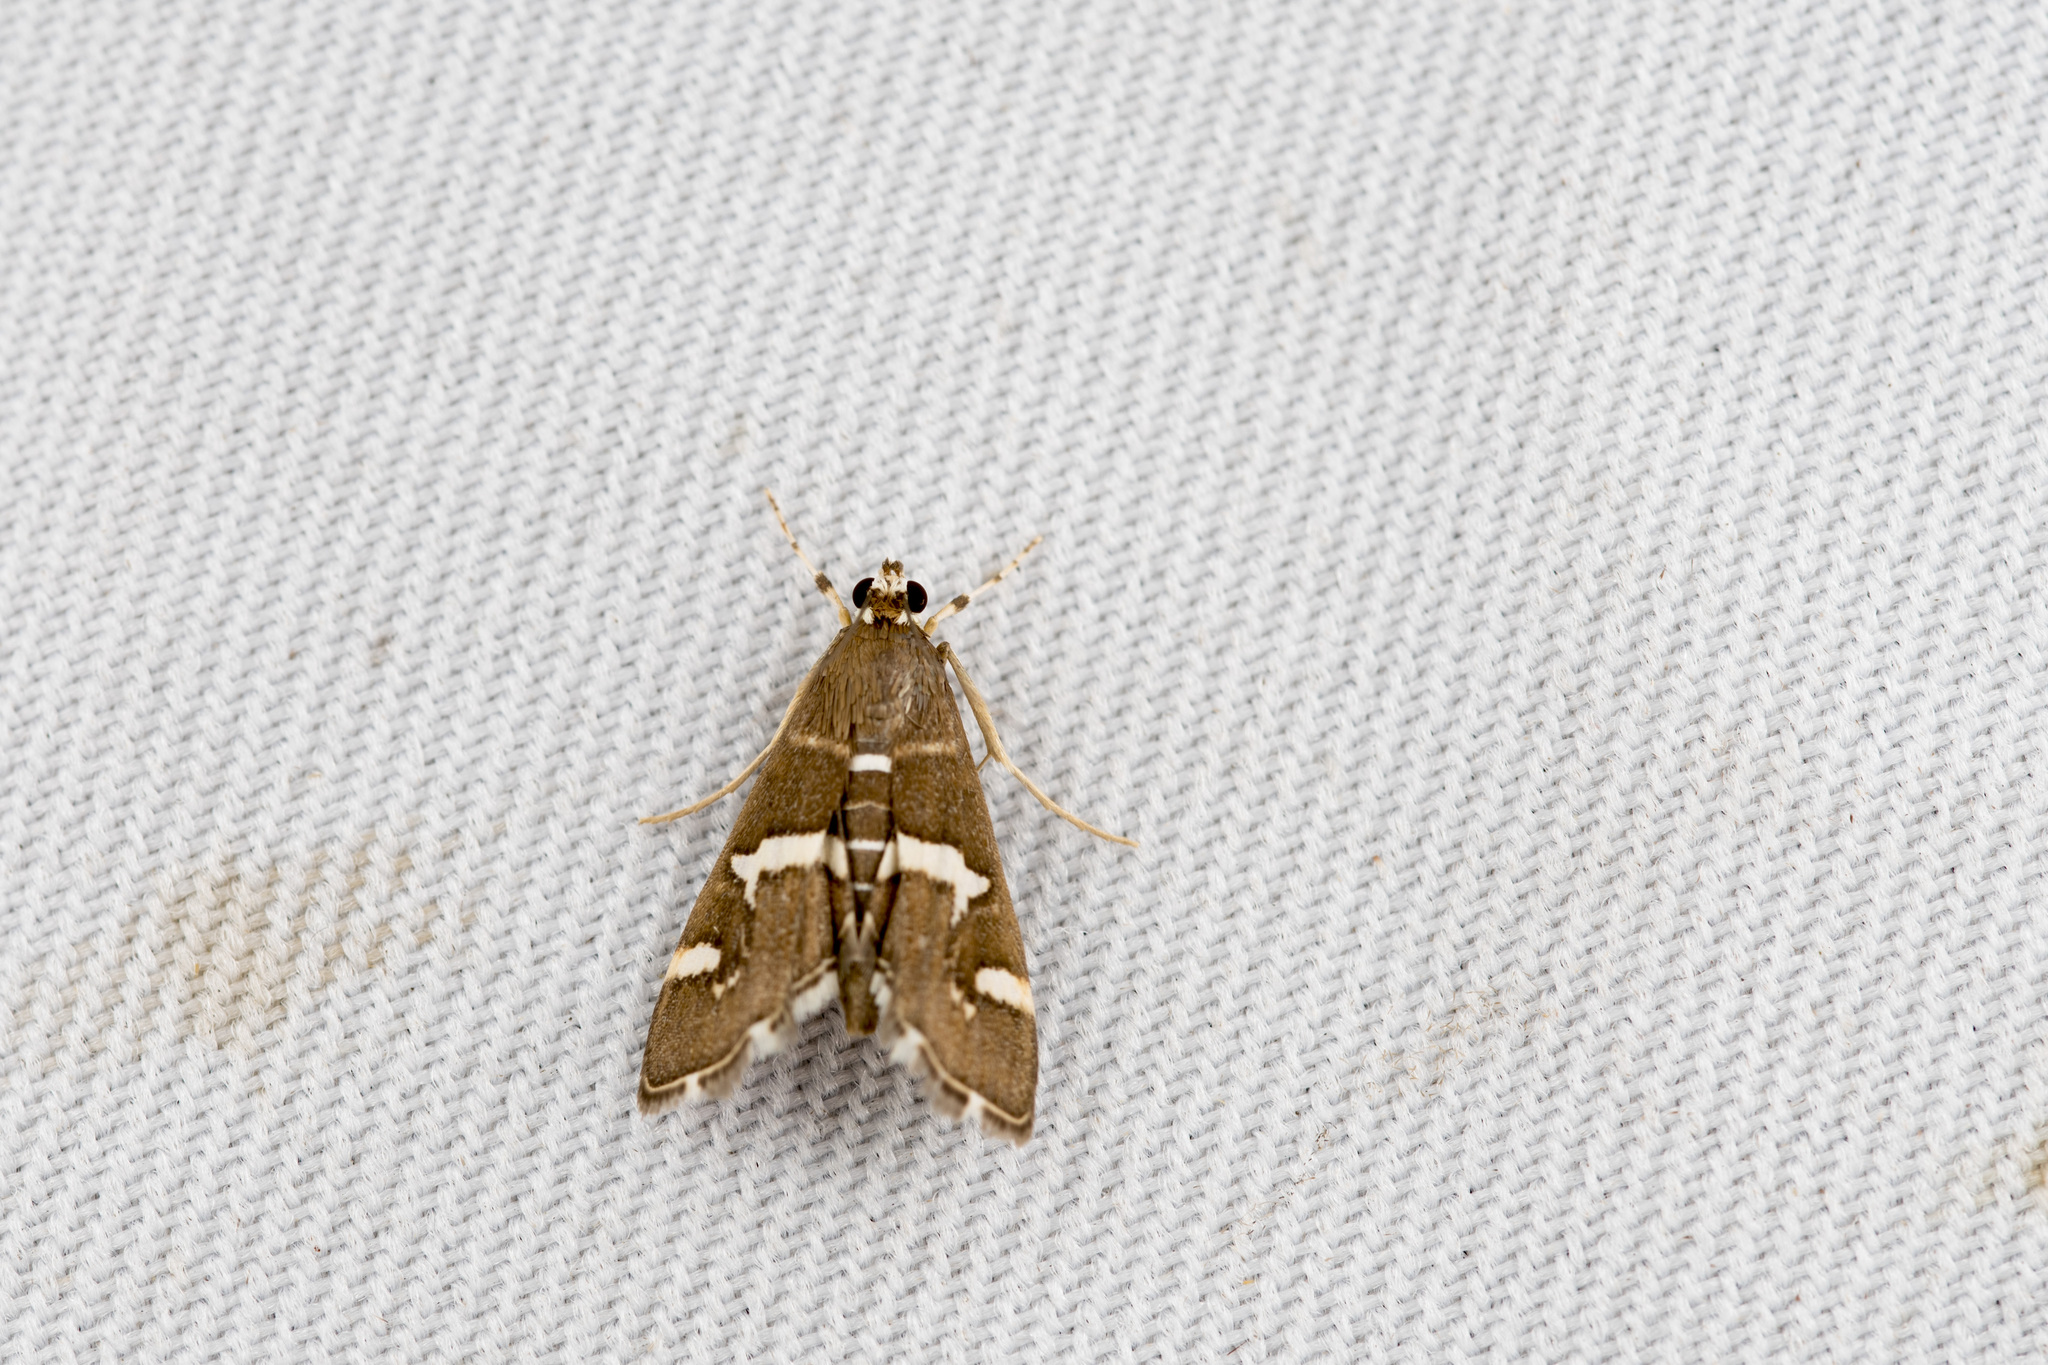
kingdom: Animalia
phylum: Arthropoda
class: Insecta
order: Lepidoptera
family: Crambidae
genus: Spoladea
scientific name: Spoladea recurvalis
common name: Beet webworm moth
